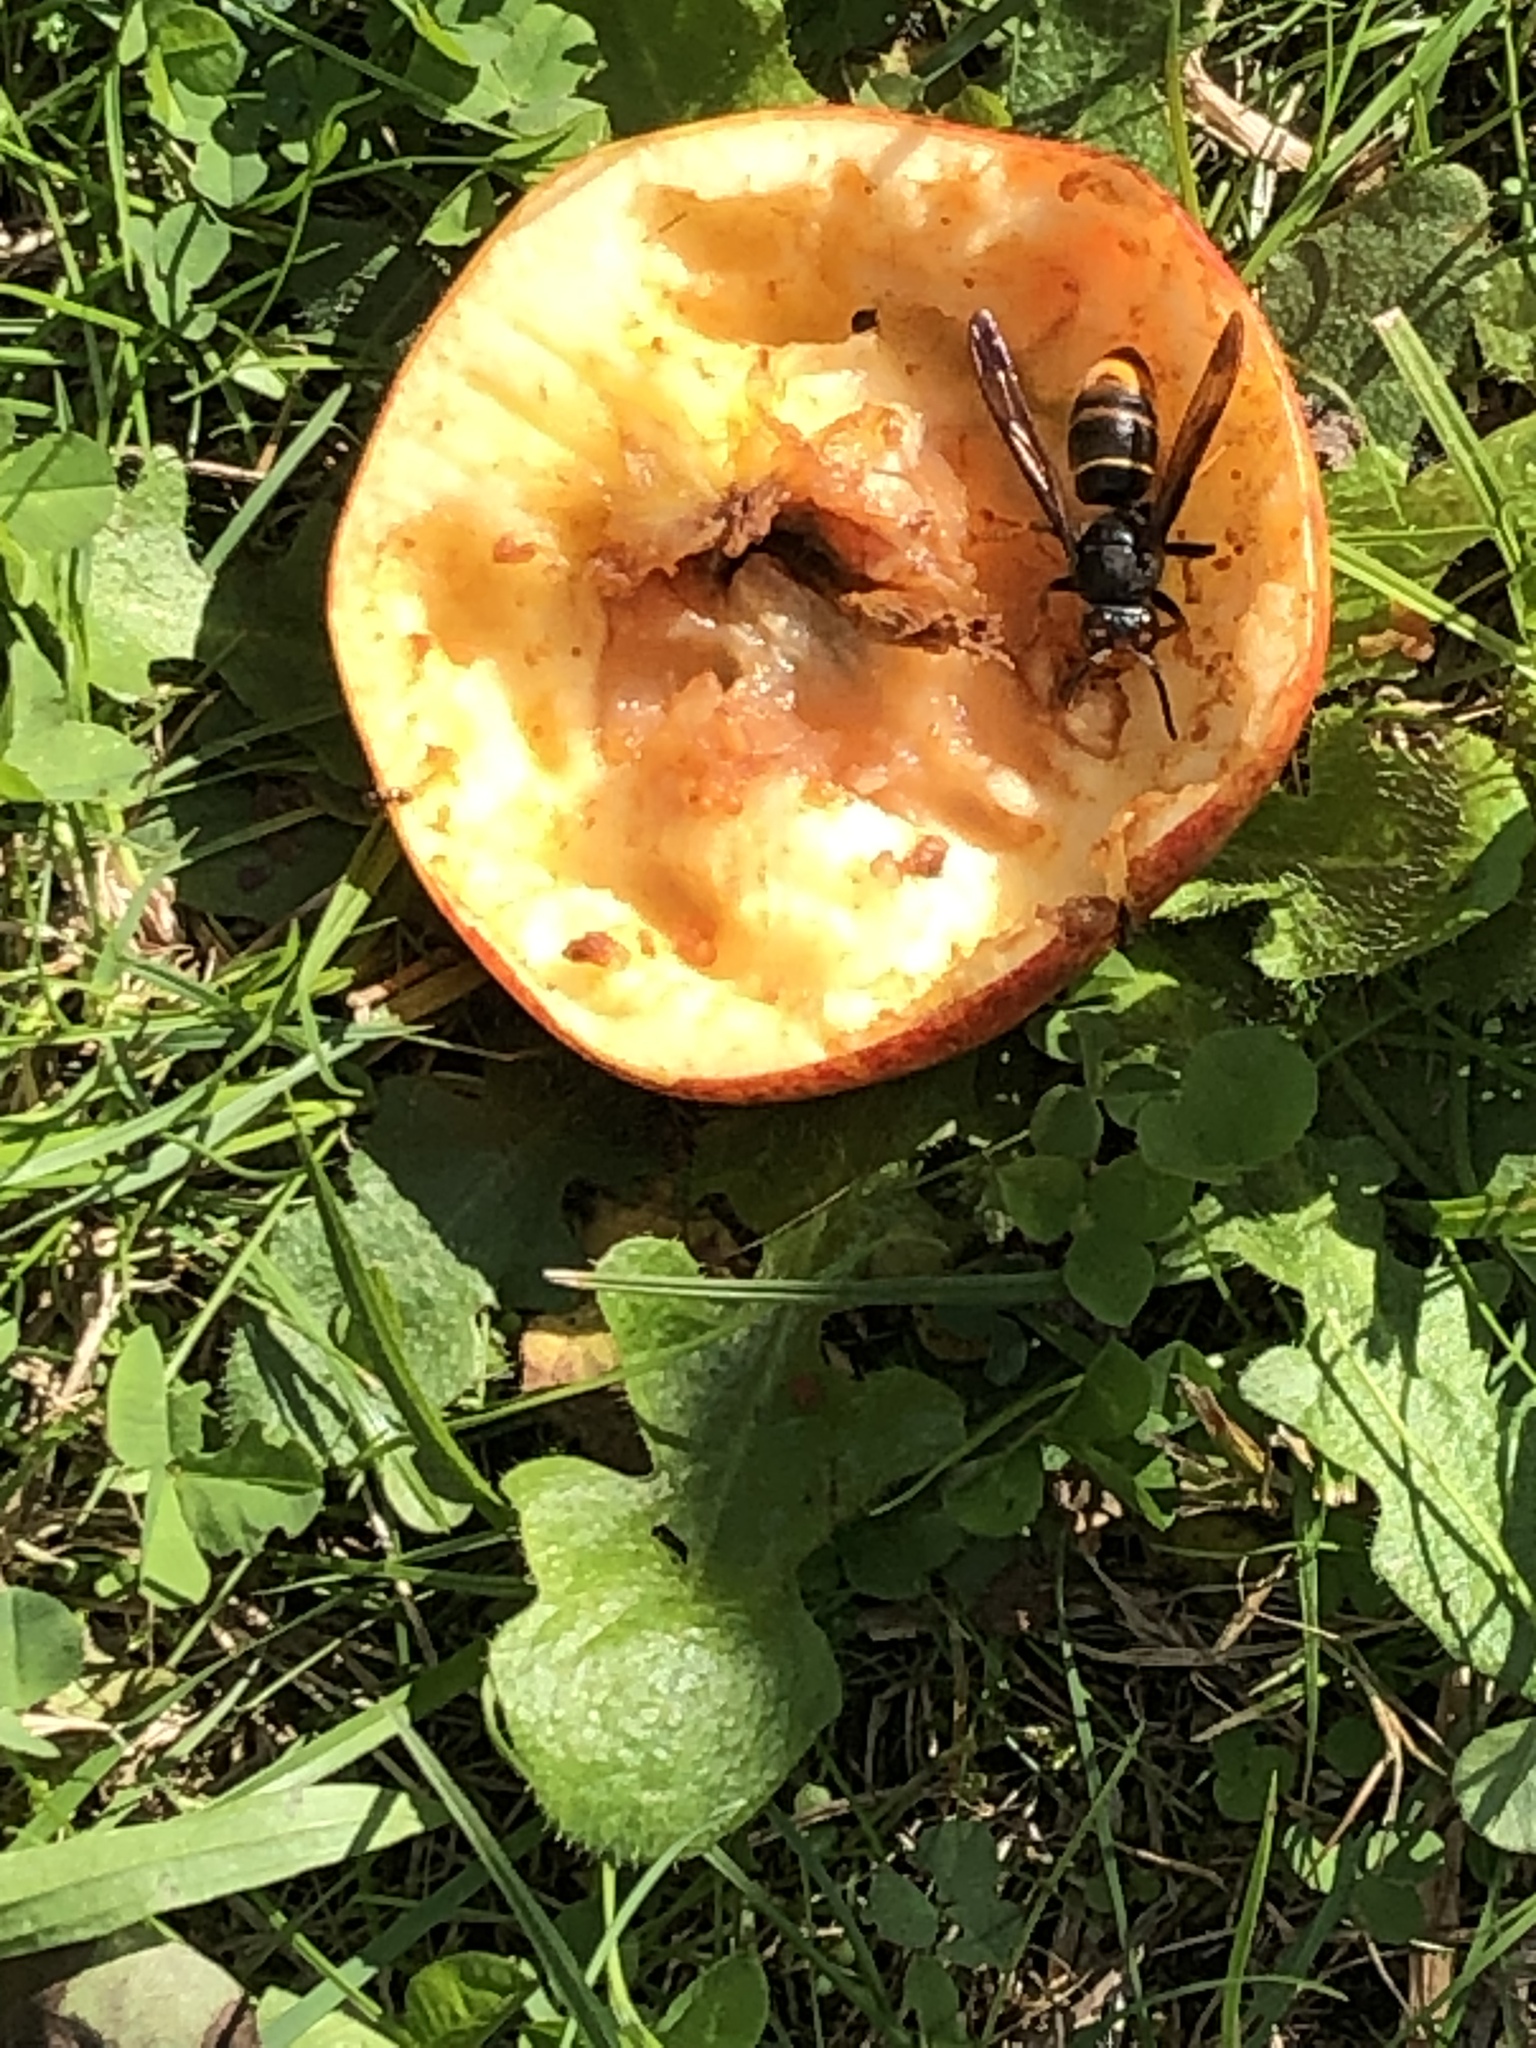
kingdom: Animalia
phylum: Arthropoda
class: Insecta
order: Hymenoptera
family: Vespidae
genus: Vespa
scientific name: Vespa velutina
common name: Asian hornet
